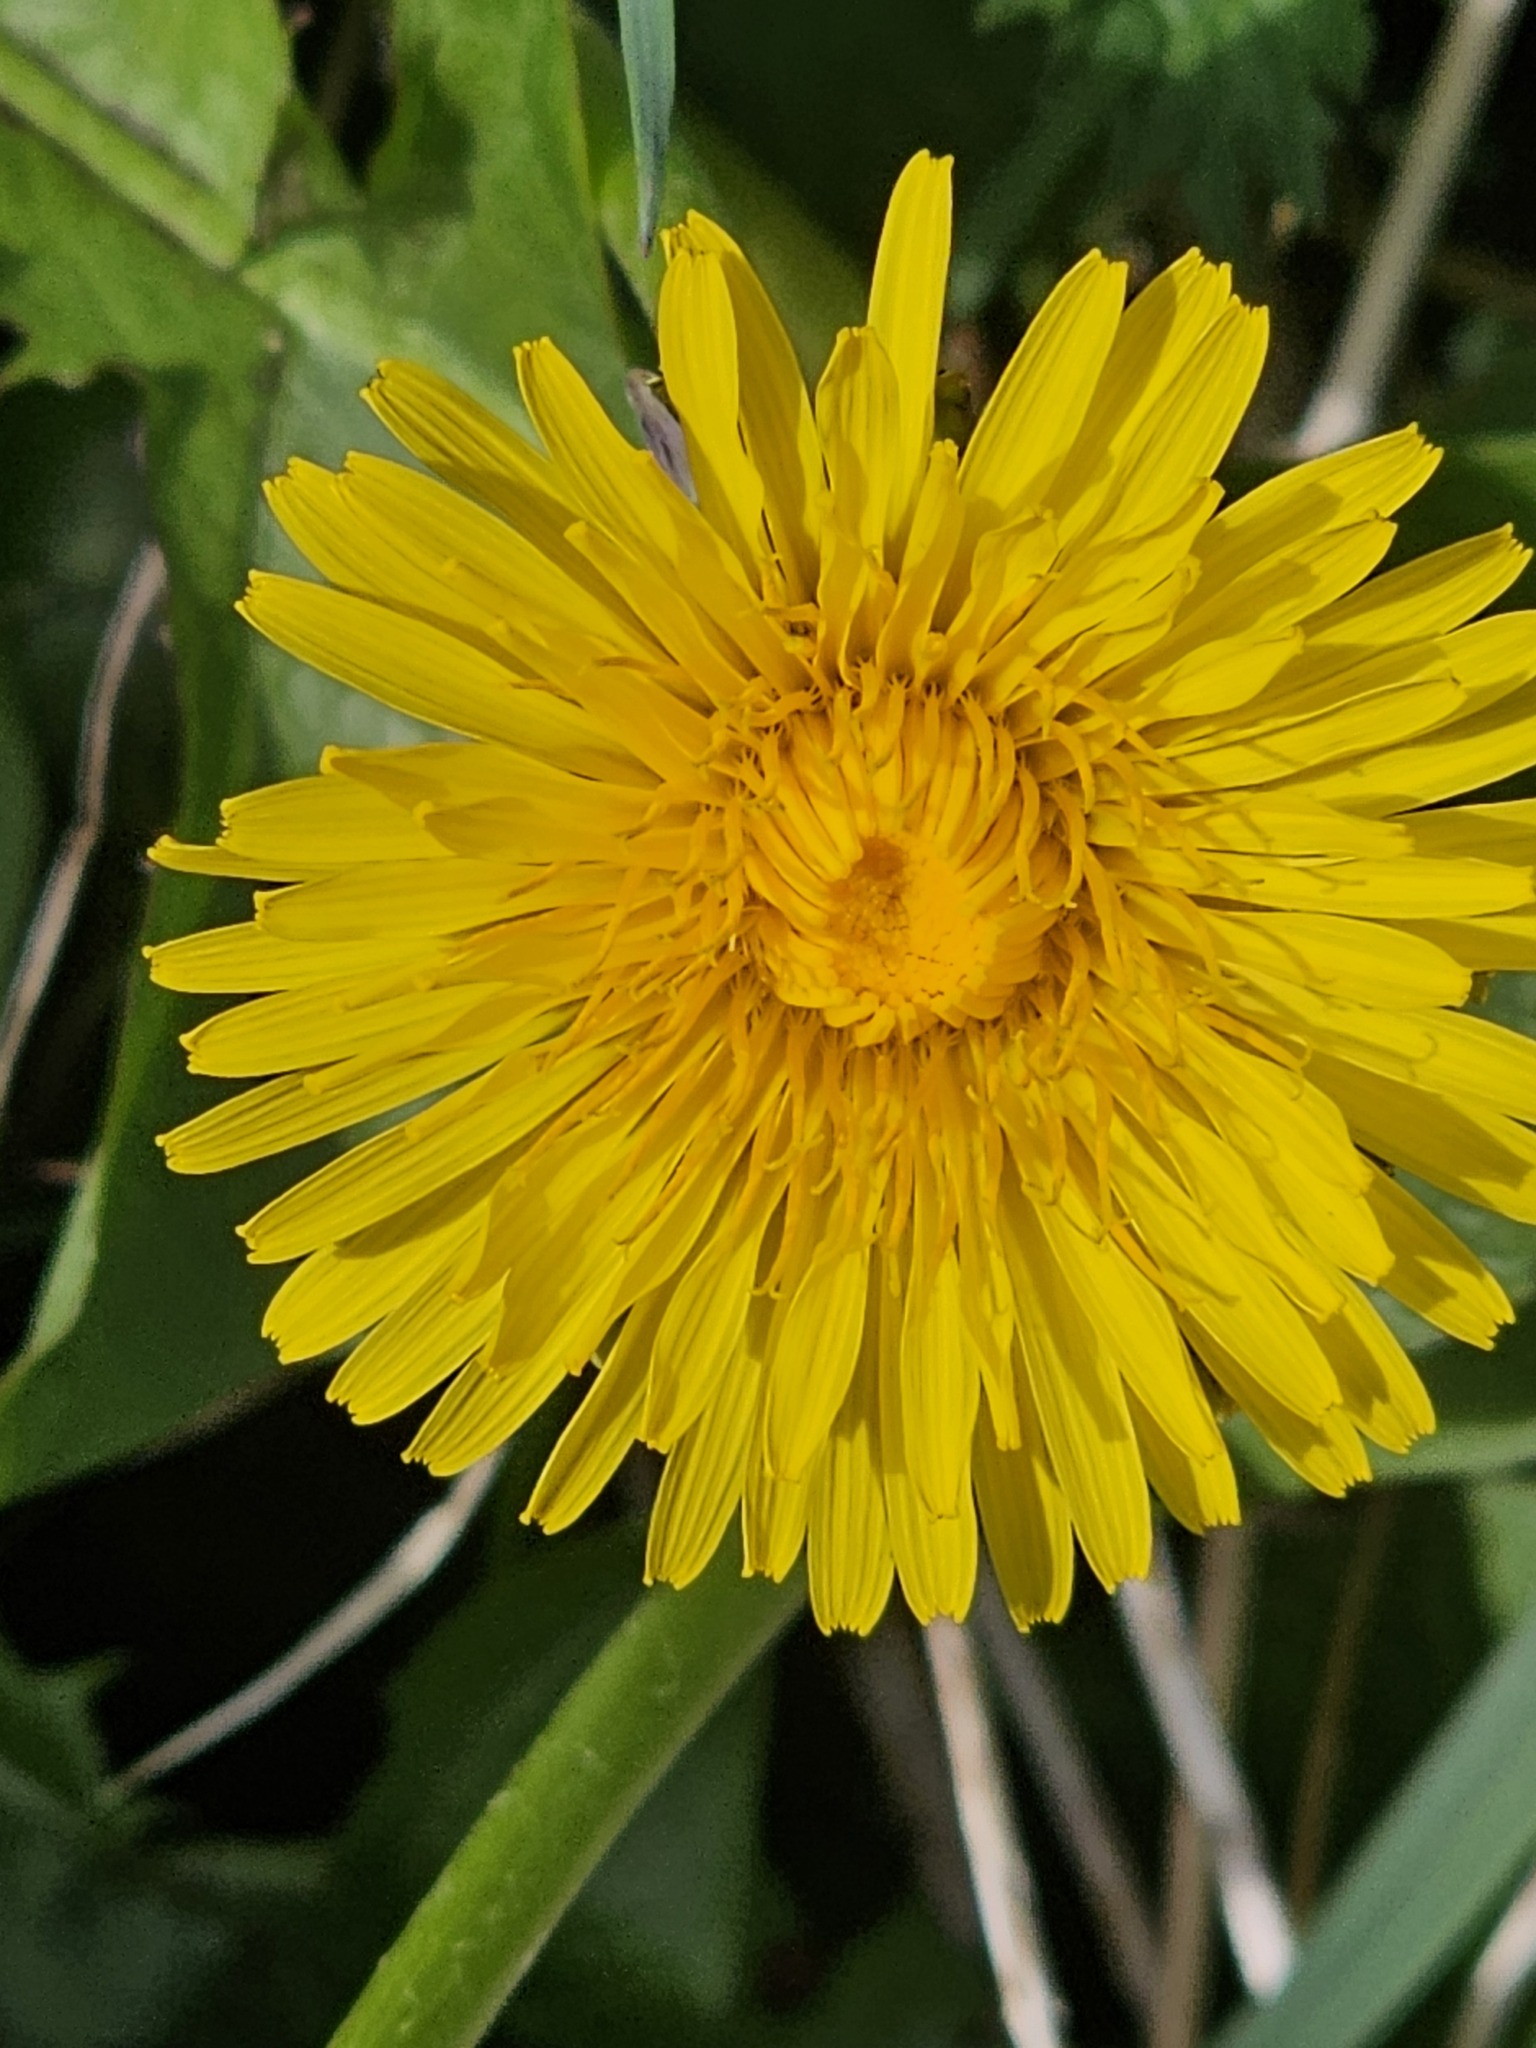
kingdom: Plantae
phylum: Tracheophyta
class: Magnoliopsida
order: Asterales
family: Asteraceae
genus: Taraxacum
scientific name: Taraxacum officinale
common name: Common dandelion
